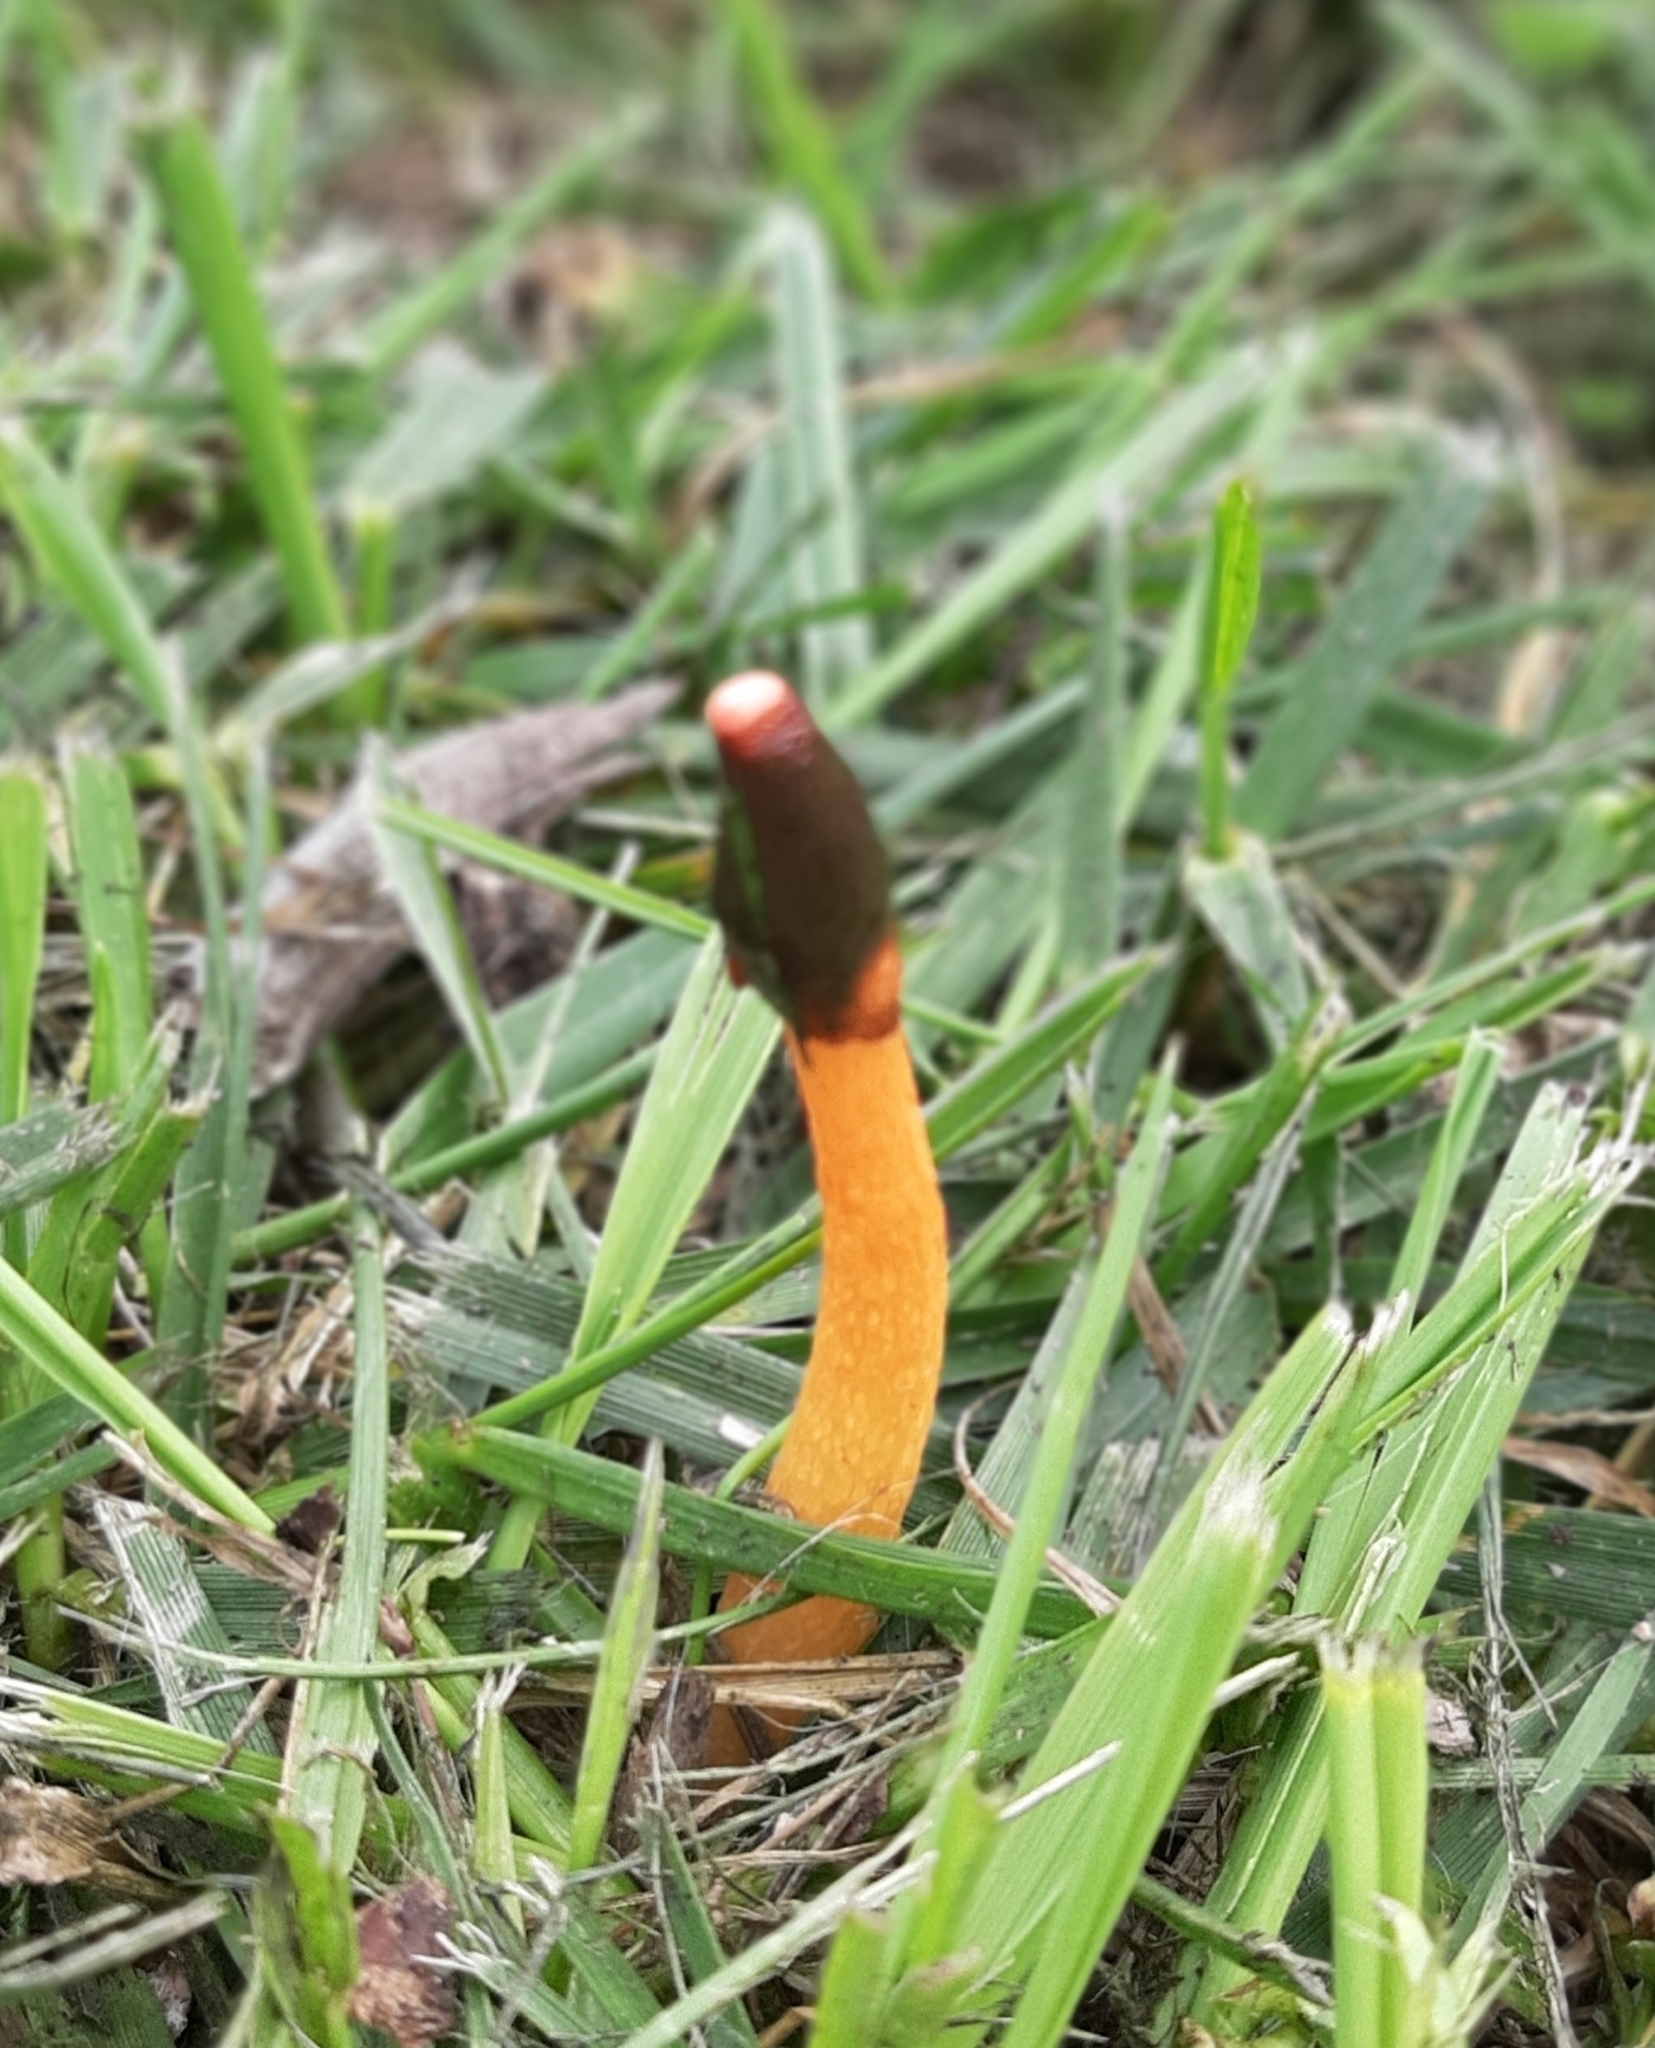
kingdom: Fungi
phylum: Basidiomycota
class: Agaricomycetes
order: Phallales
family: Phallaceae
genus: Phallus
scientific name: Phallus rugulosus
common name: Wrinkly stinkhorn
